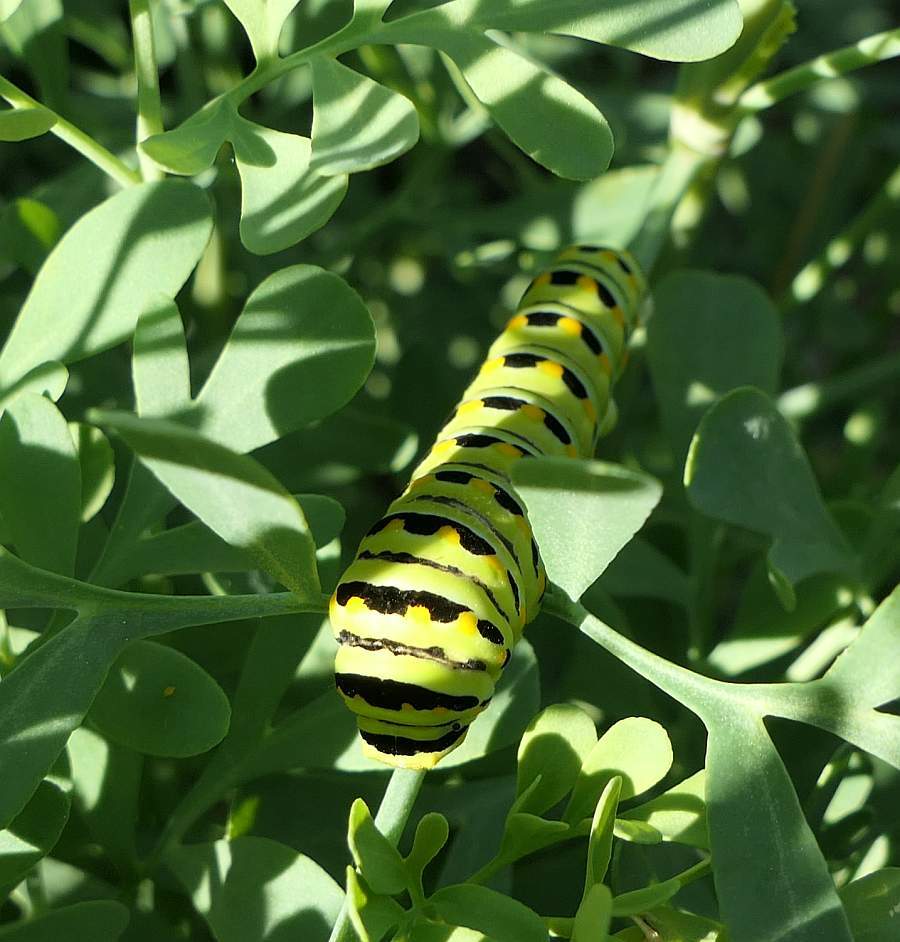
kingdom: Animalia
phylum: Arthropoda
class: Insecta
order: Lepidoptera
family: Papilionidae
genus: Papilio
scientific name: Papilio polyxenes
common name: Black swallowtail
